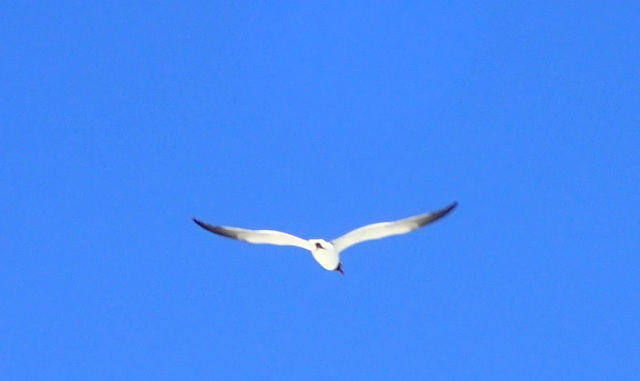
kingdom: Animalia
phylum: Chordata
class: Aves
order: Charadriiformes
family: Laridae
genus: Leucophaeus
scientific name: Leucophaeus atricilla
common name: Laughing gull
